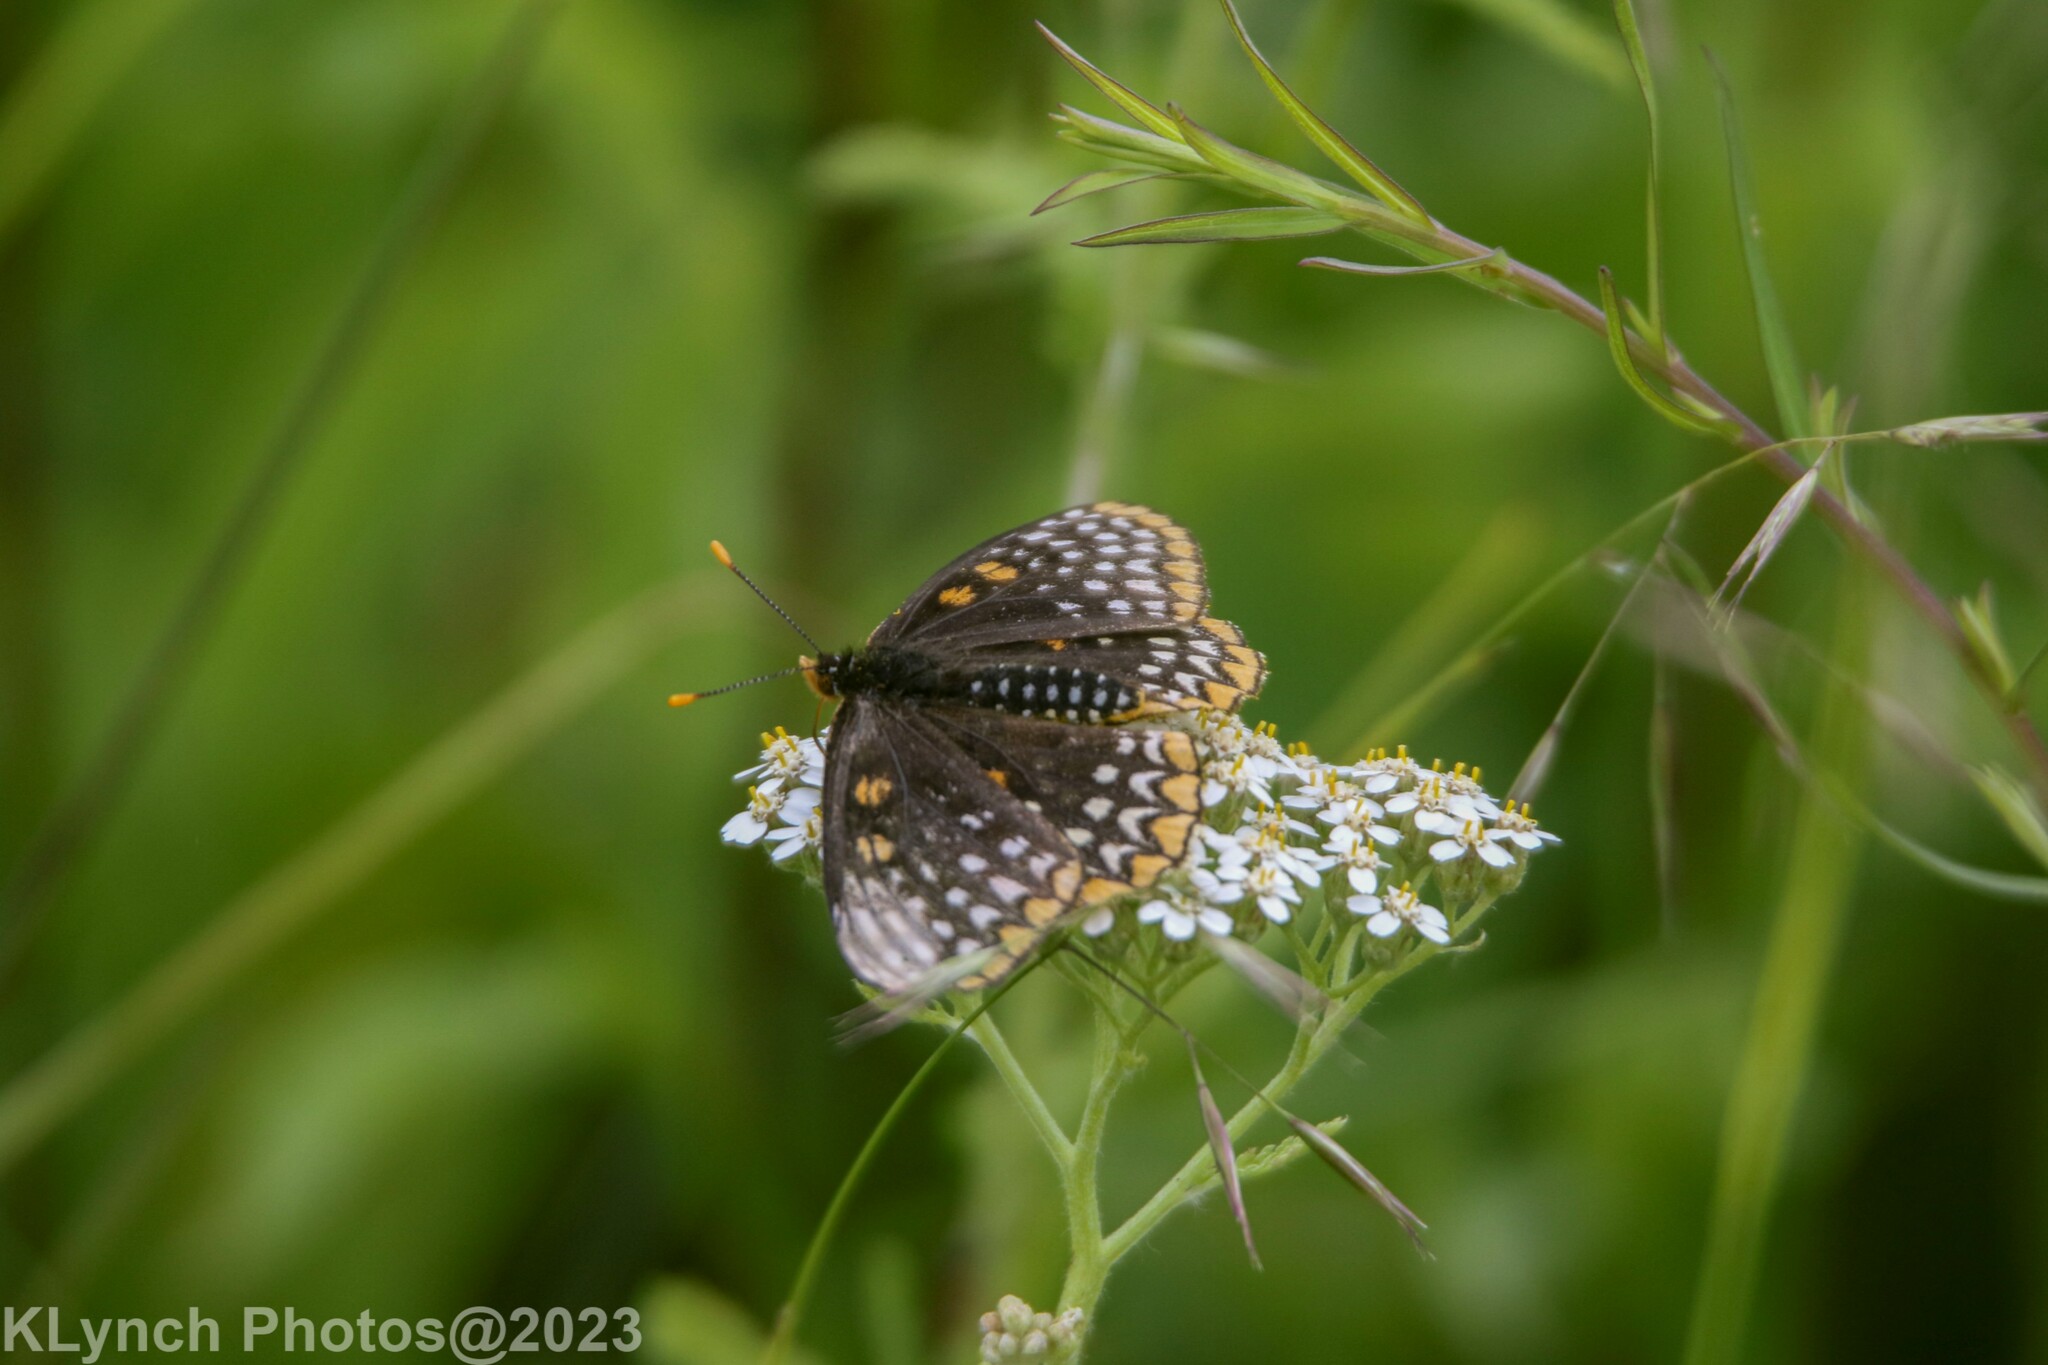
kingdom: Animalia
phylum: Arthropoda
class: Insecta
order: Lepidoptera
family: Nymphalidae
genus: Euphydryas
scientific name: Euphydryas phaeton
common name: Baltimore checkerspot
